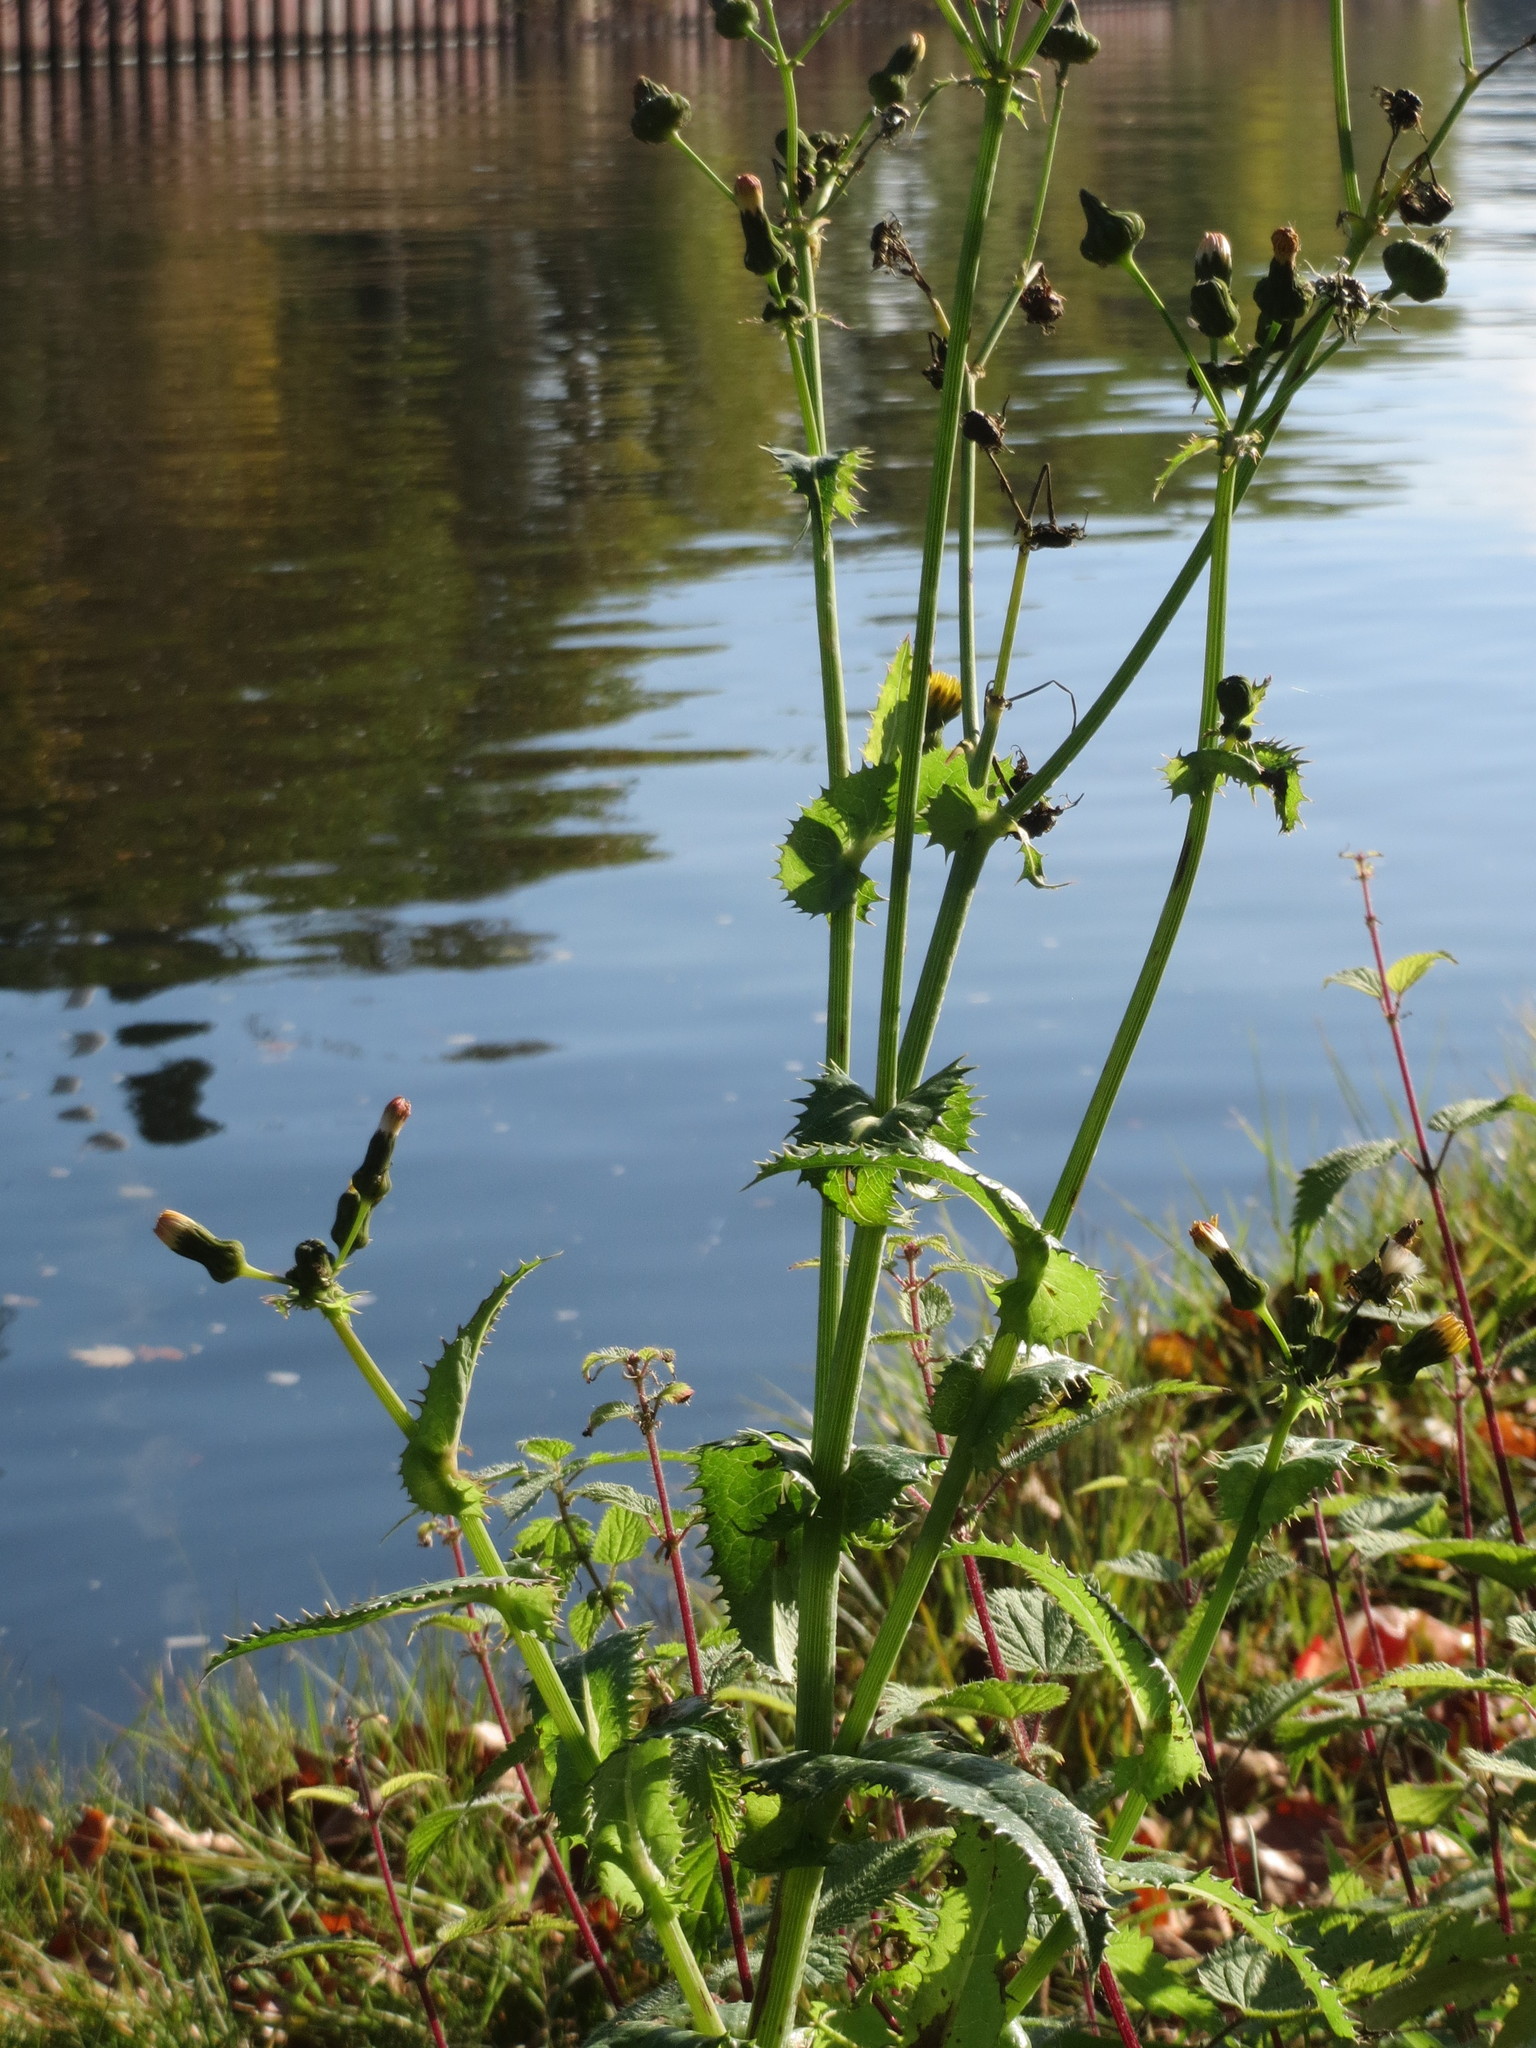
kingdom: Plantae
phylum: Tracheophyta
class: Magnoliopsida
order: Asterales
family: Asteraceae
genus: Sonchus
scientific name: Sonchus asper
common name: Prickly sow-thistle
